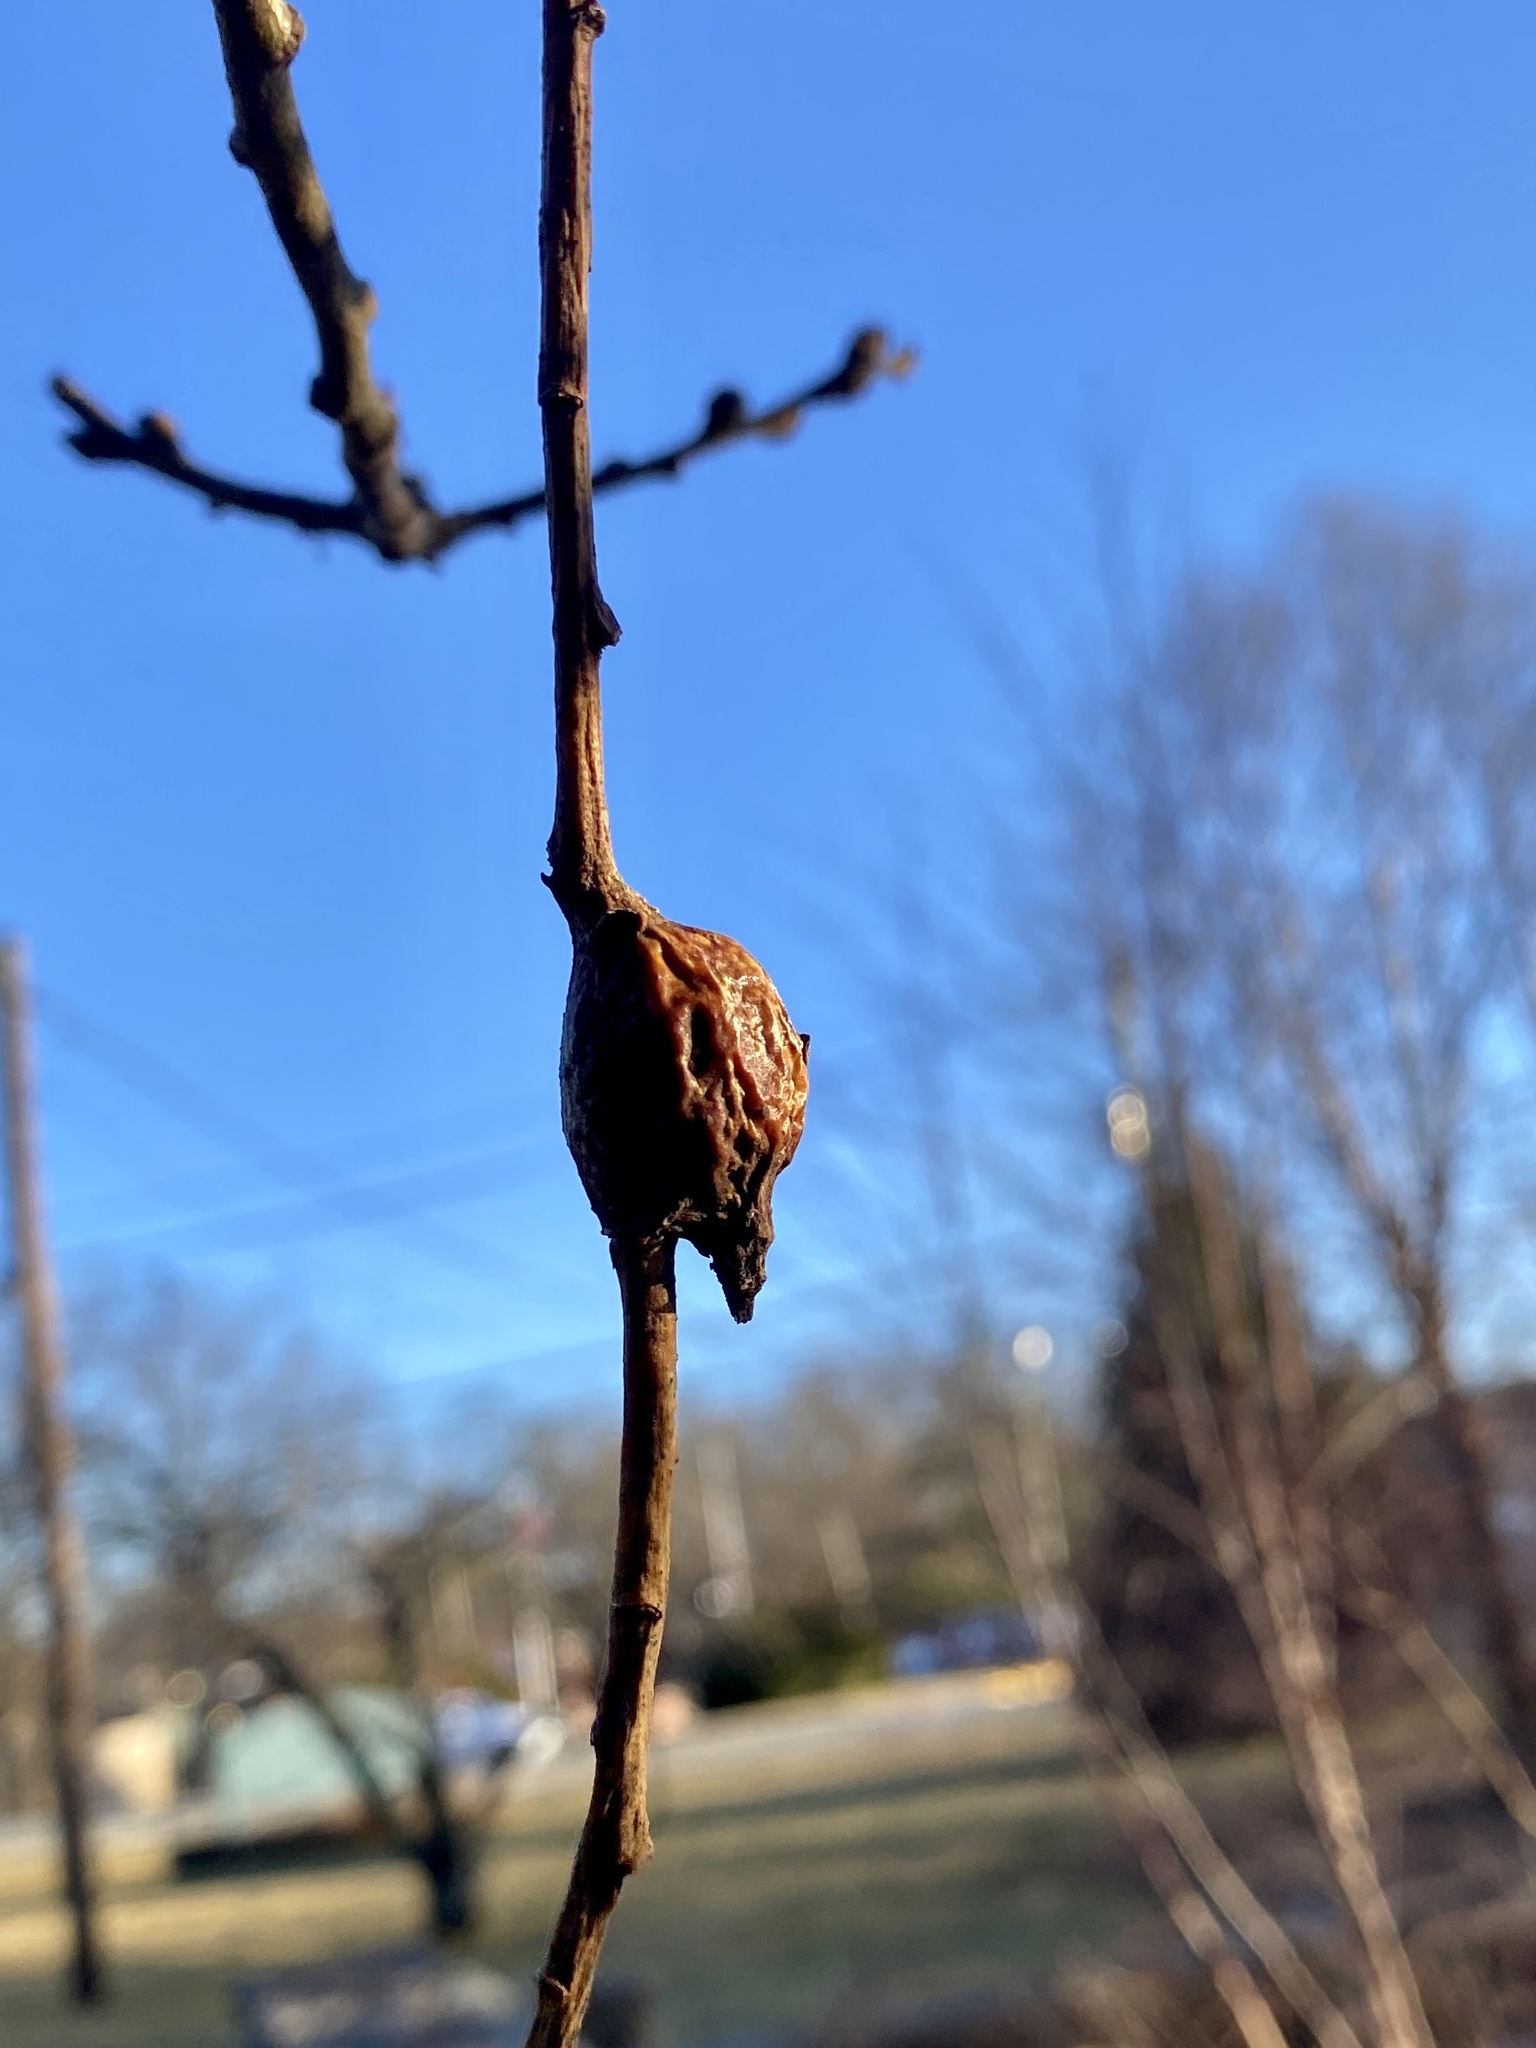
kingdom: Animalia
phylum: Arthropoda
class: Insecta
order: Diptera
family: Cecidomyiidae
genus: Thecodiplosis
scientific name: Thecodiplosis pinirigidae
